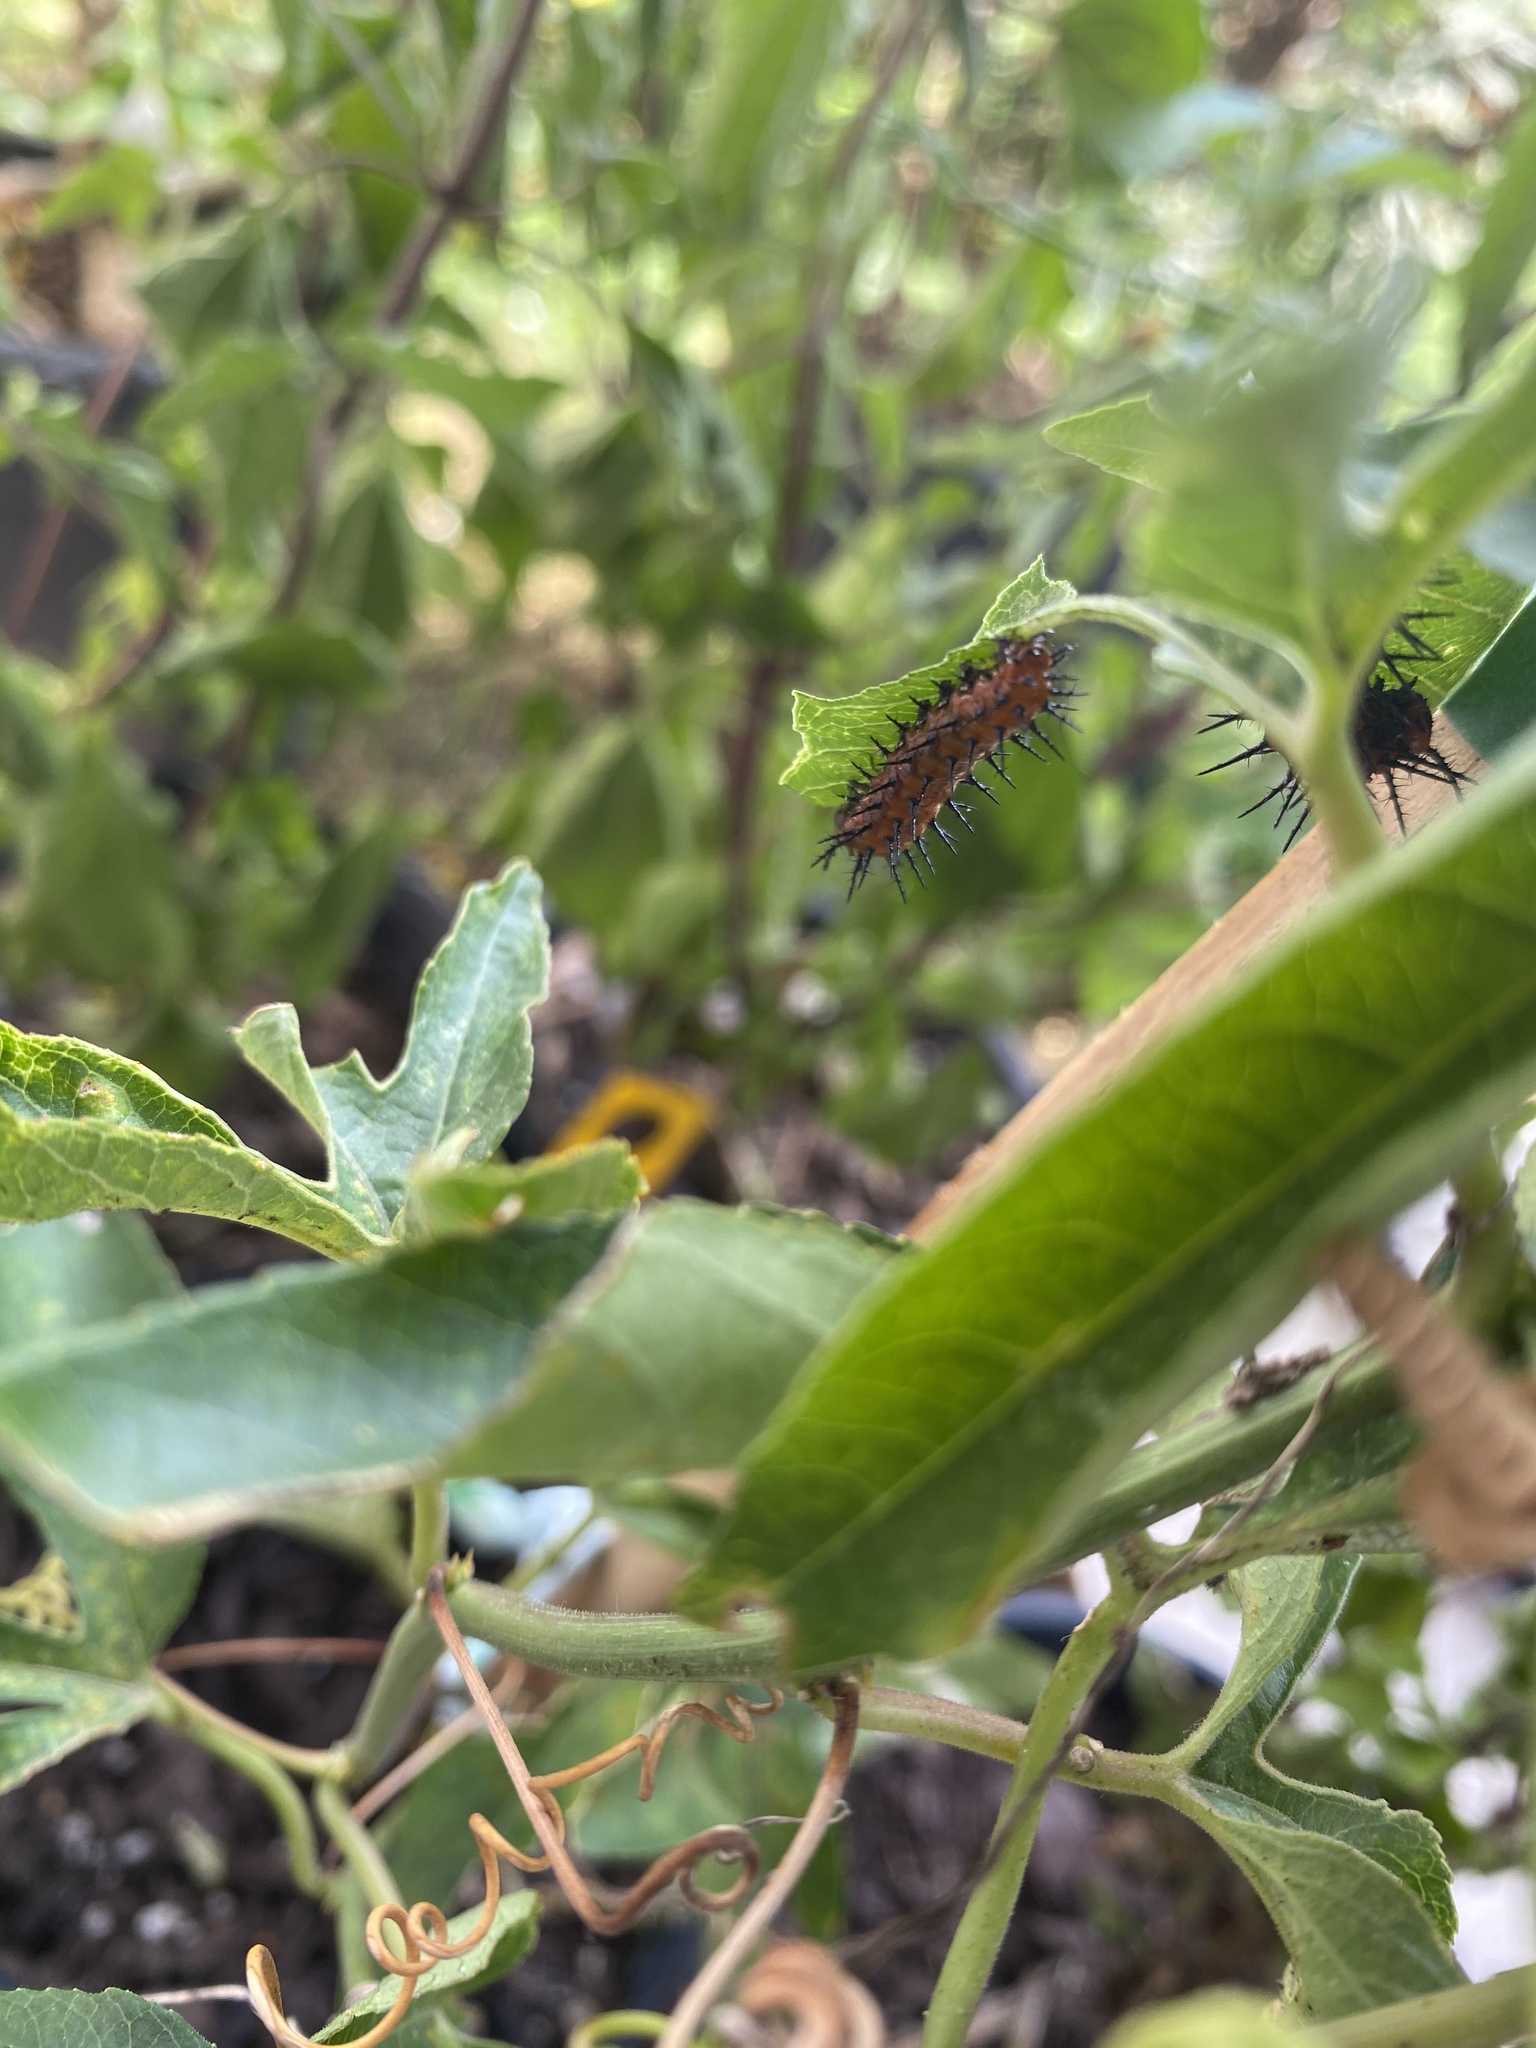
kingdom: Animalia
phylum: Arthropoda
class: Insecta
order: Lepidoptera
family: Nymphalidae
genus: Dione
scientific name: Dione vanillae
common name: Gulf fritillary
